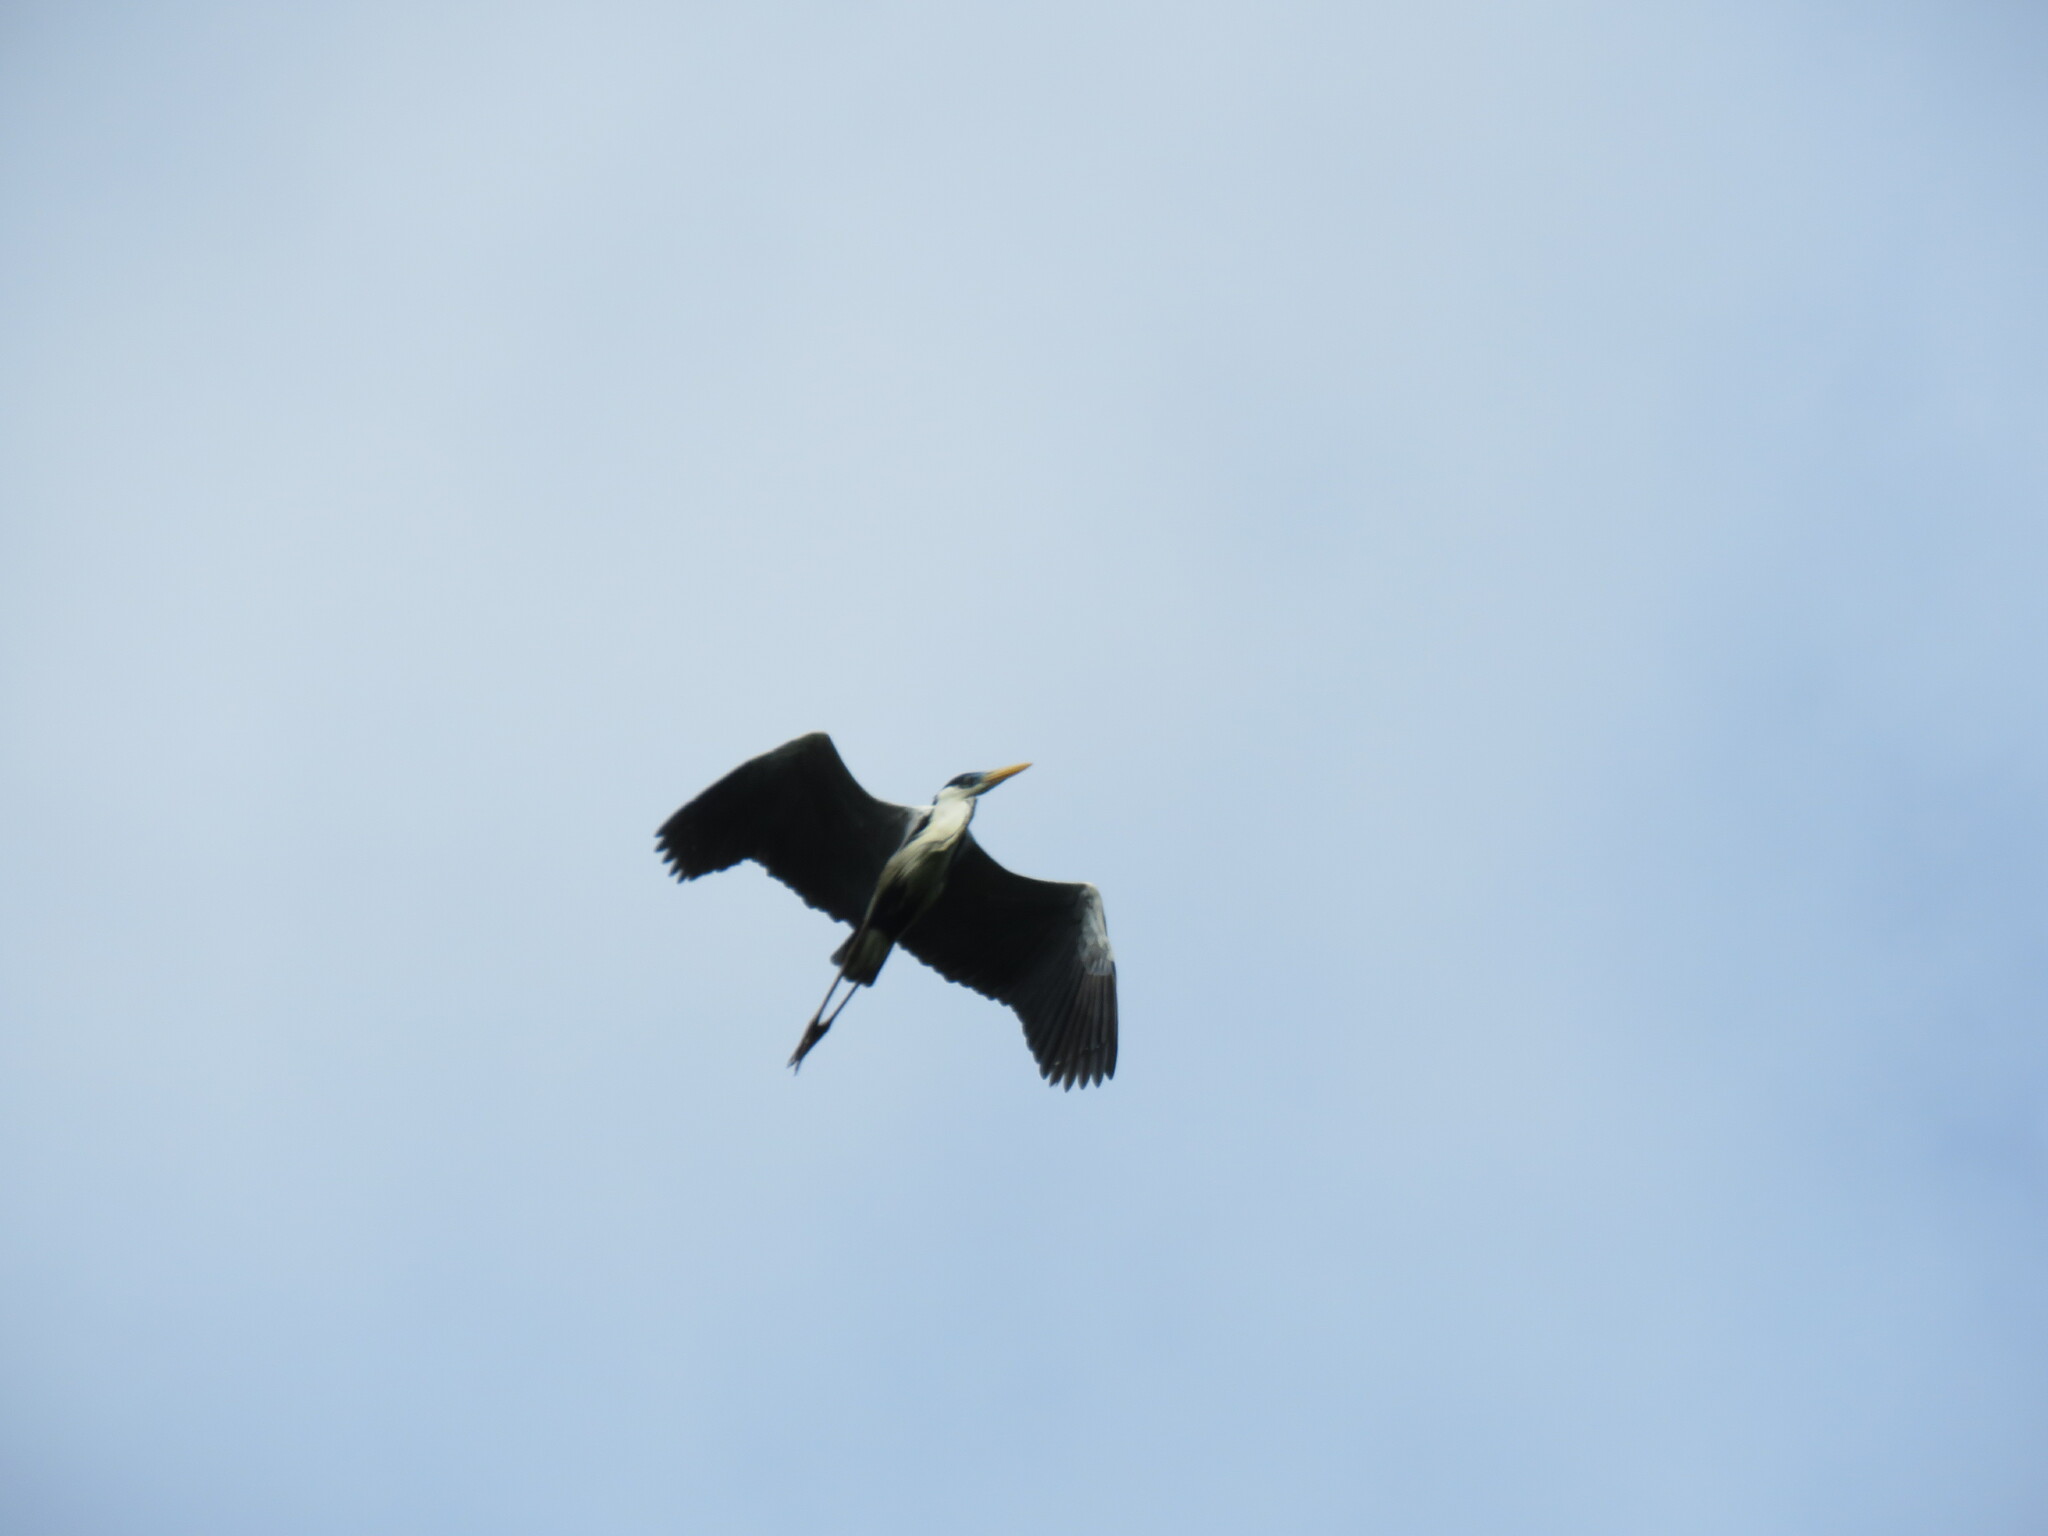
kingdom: Animalia
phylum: Chordata
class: Aves
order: Pelecaniformes
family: Ardeidae
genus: Ardea
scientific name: Ardea cocoi
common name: Cocoi heron
